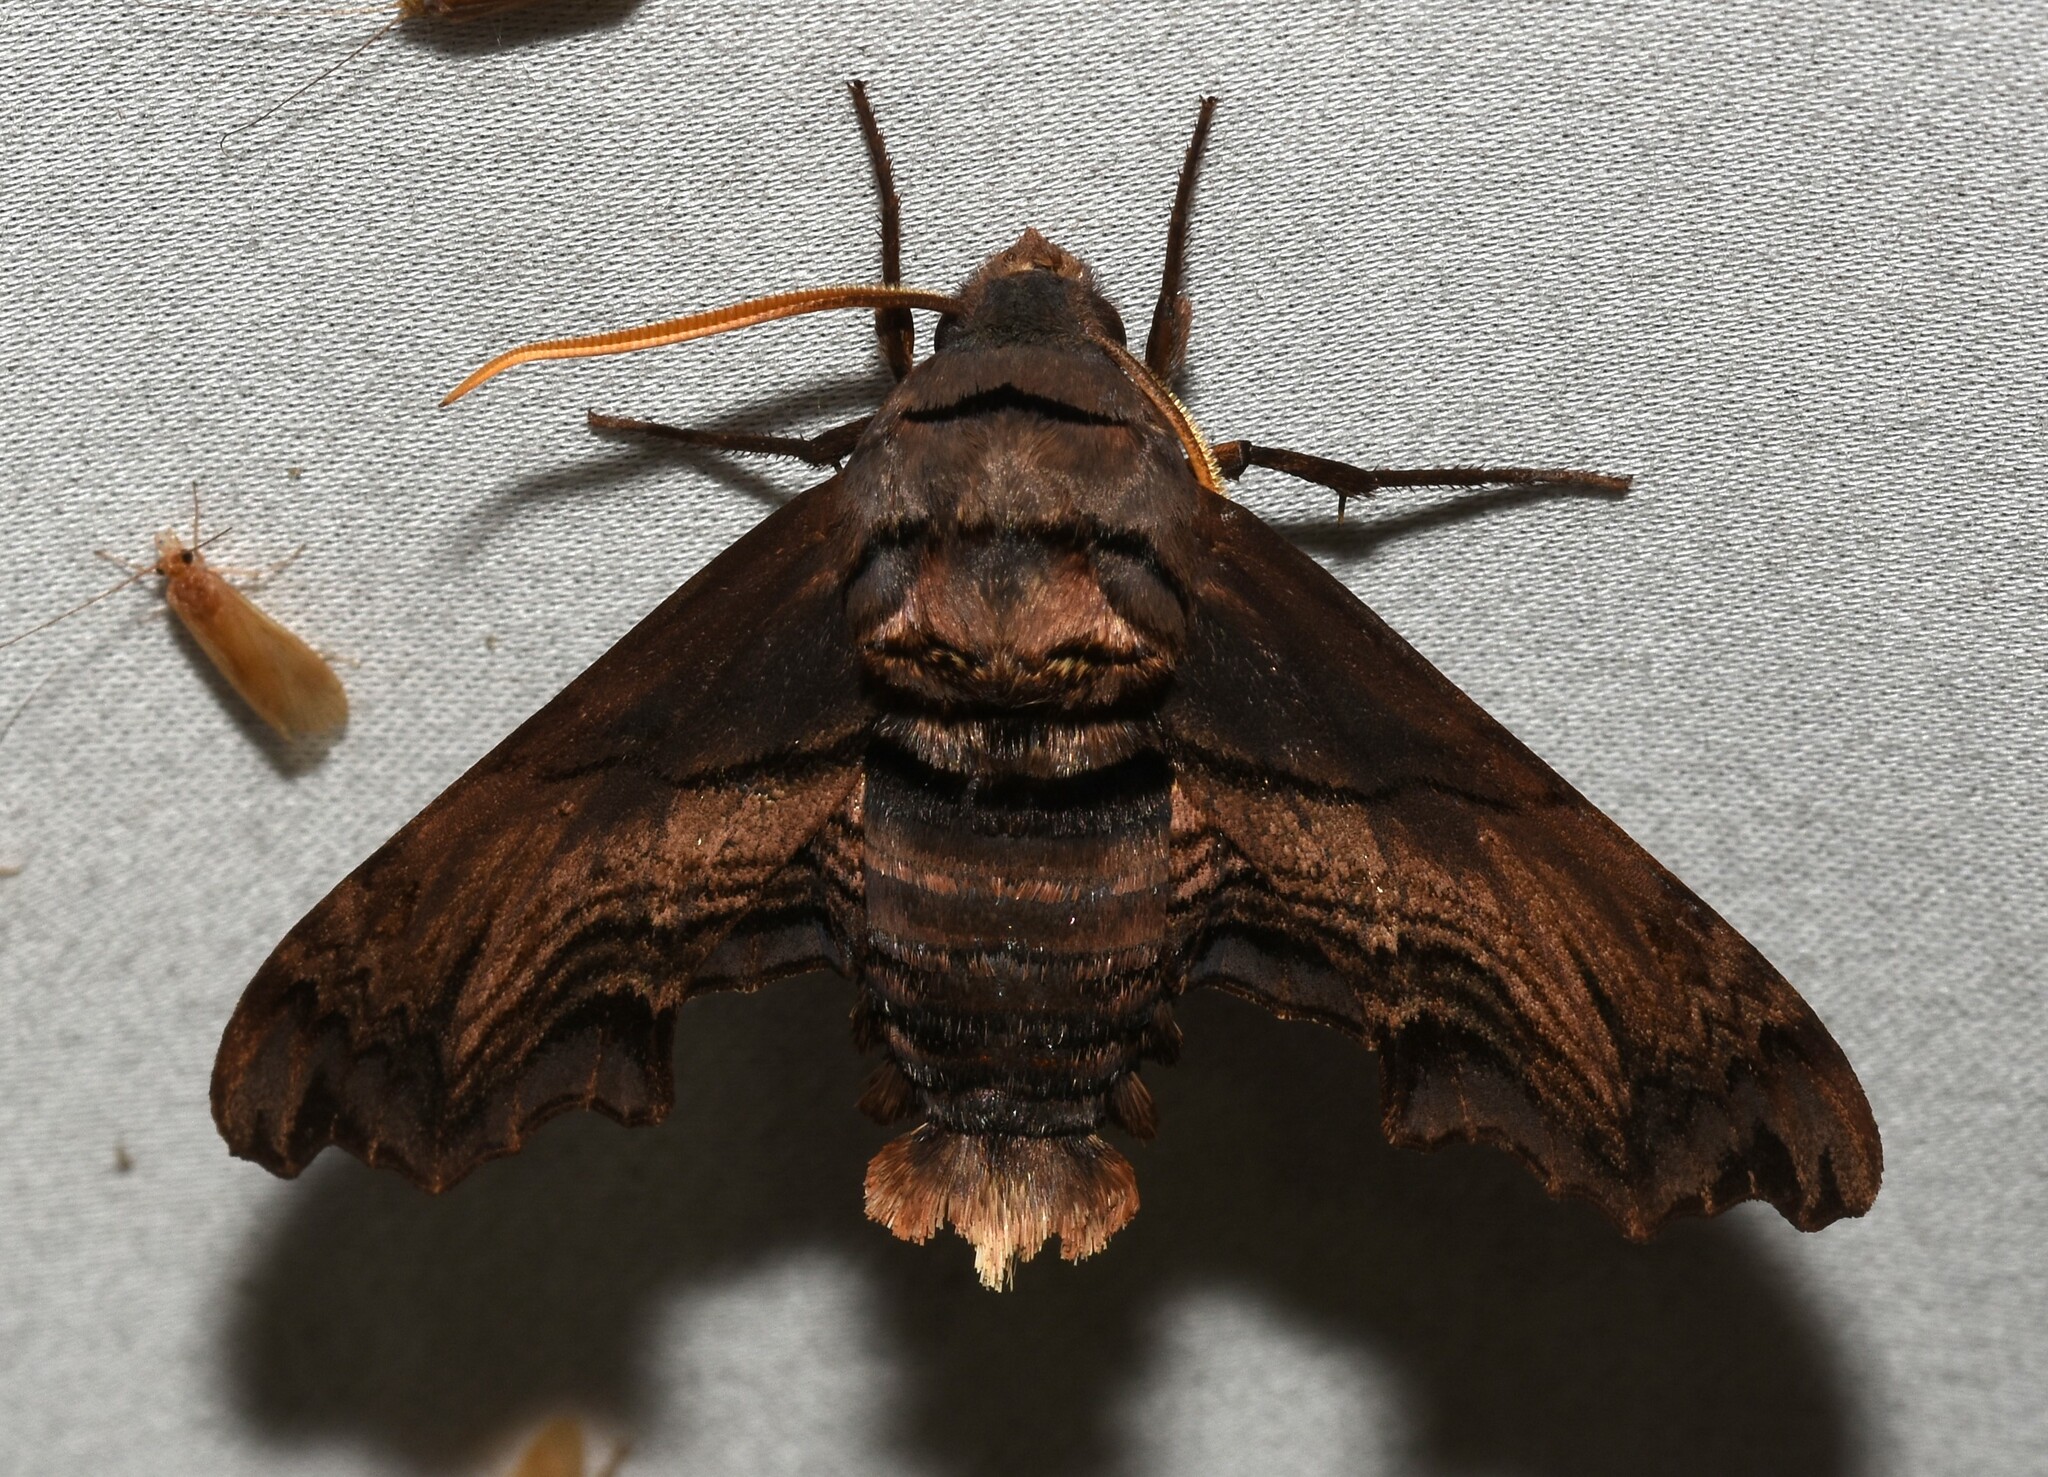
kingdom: Animalia
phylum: Arthropoda
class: Insecta
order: Lepidoptera
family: Sphingidae
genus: Sphecodina
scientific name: Sphecodina abbottii
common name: Abbott's sphinx
